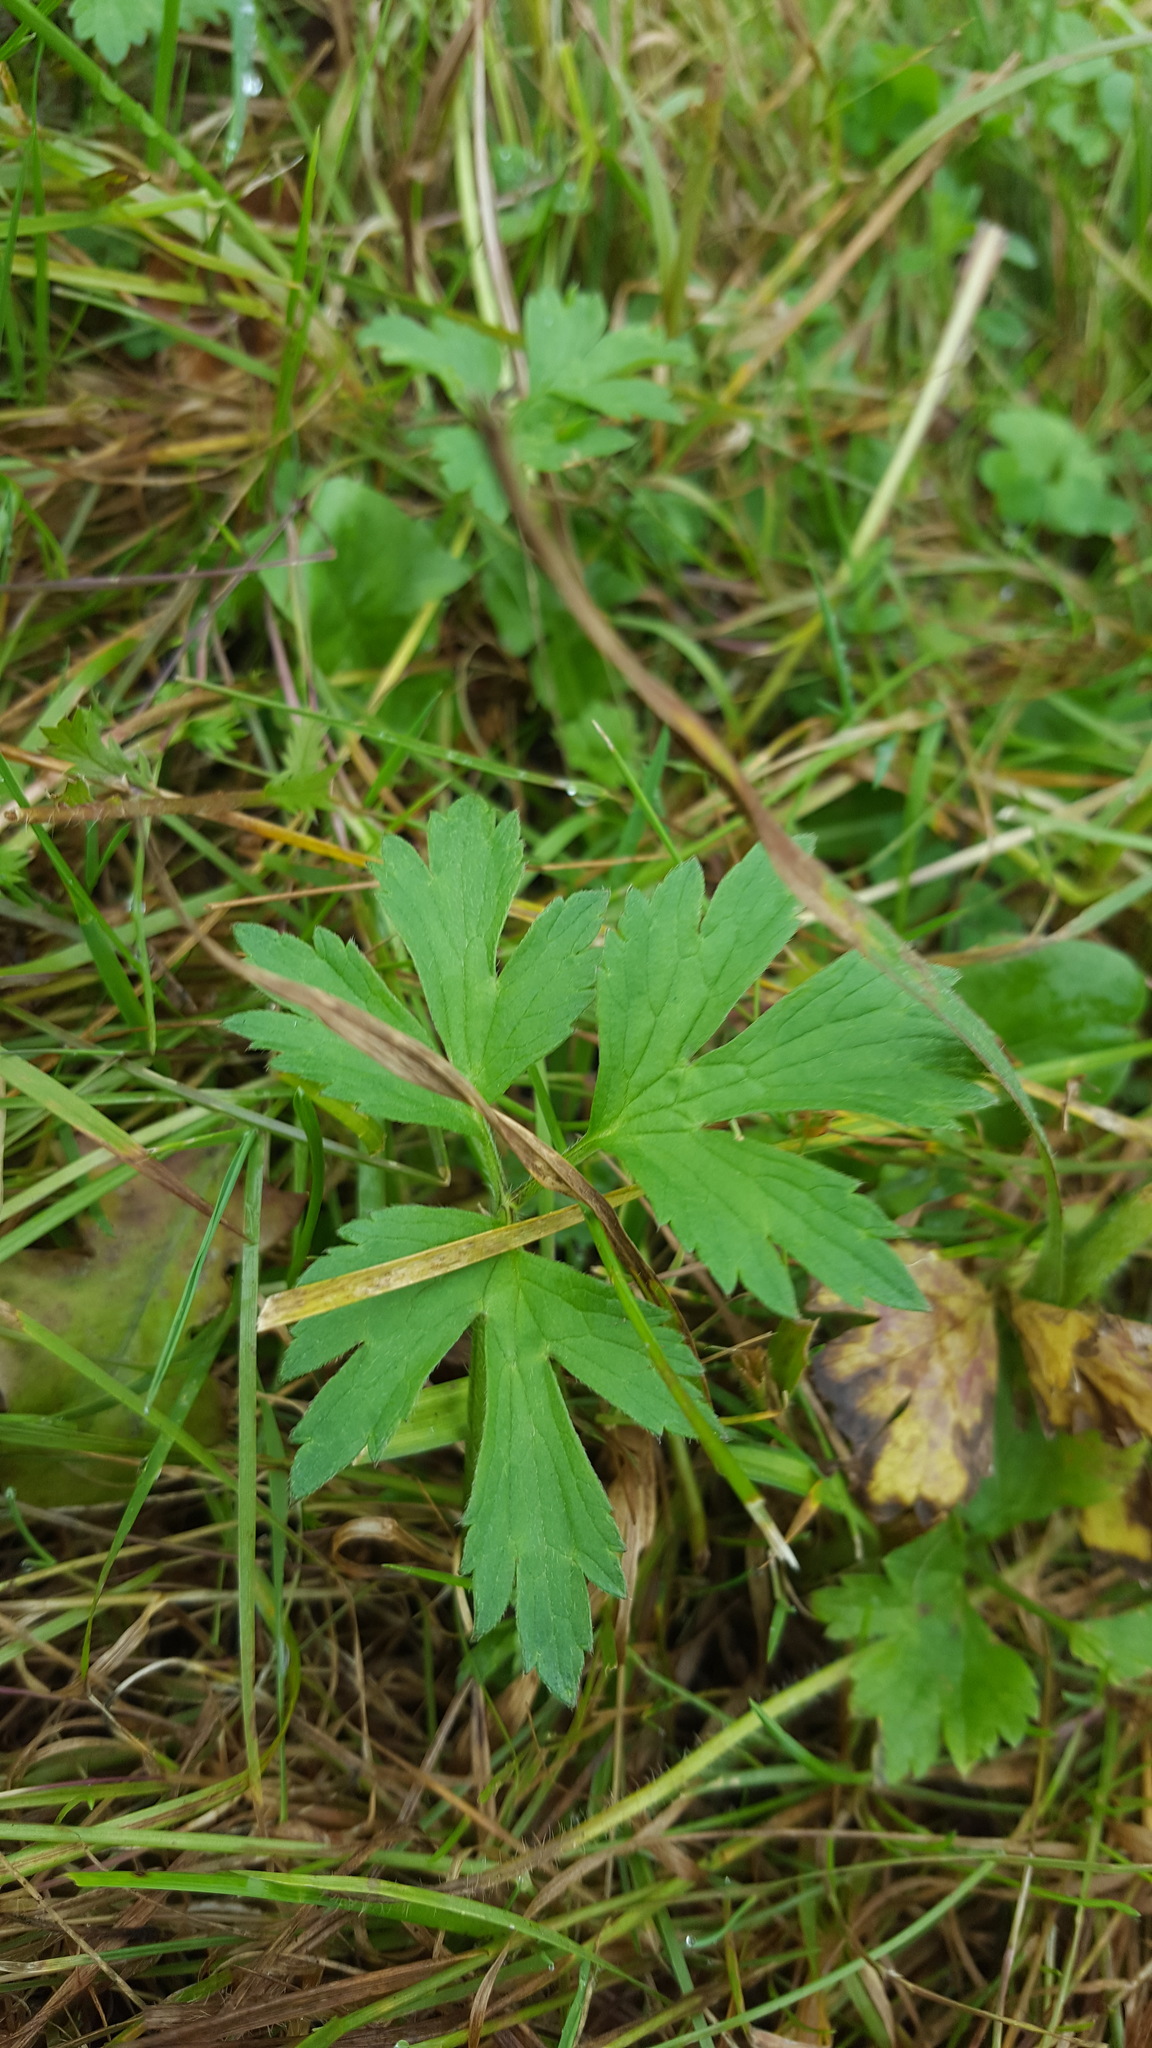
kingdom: Plantae
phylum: Tracheophyta
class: Magnoliopsida
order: Ranunculales
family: Ranunculaceae
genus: Ranunculus
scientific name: Ranunculus repens
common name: Creeping buttercup
